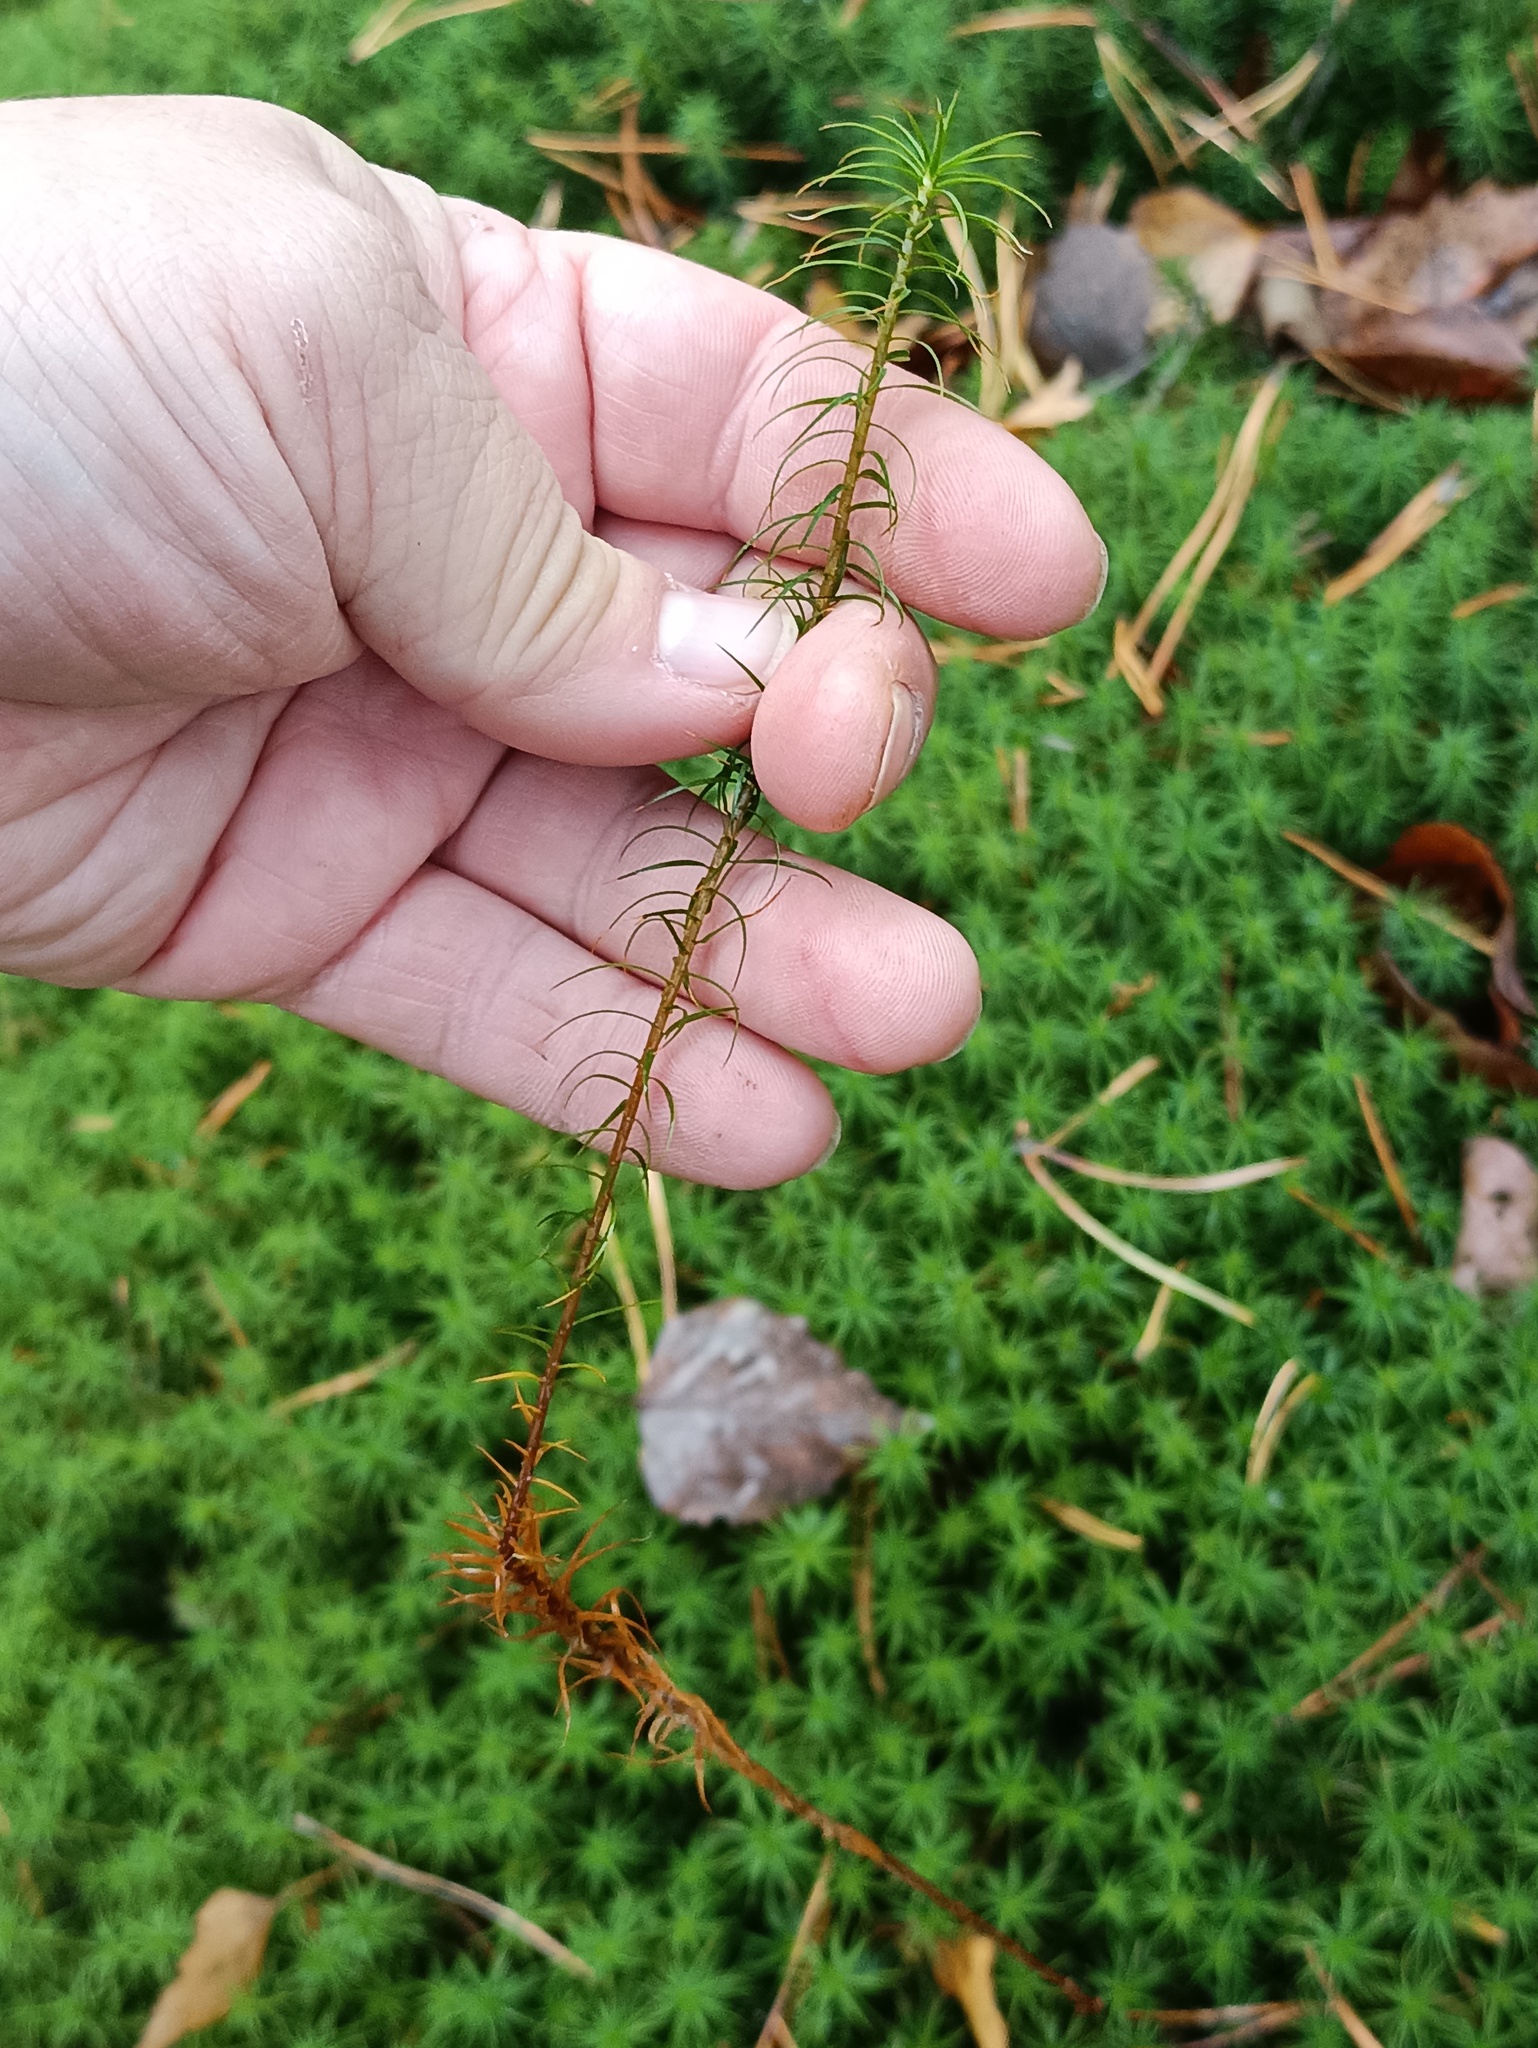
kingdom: Plantae
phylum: Bryophyta
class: Polytrichopsida
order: Polytrichales
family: Polytrichaceae
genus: Polytrichum
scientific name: Polytrichum commune
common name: Common haircap
